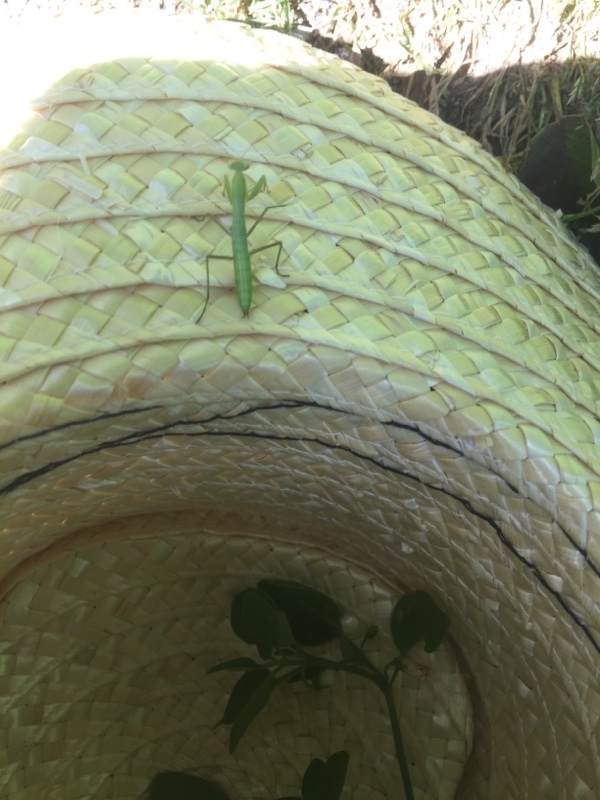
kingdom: Animalia
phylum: Arthropoda
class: Insecta
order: Mantodea
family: Mantidae
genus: Mantis
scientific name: Mantis religiosa
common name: Praying mantis
